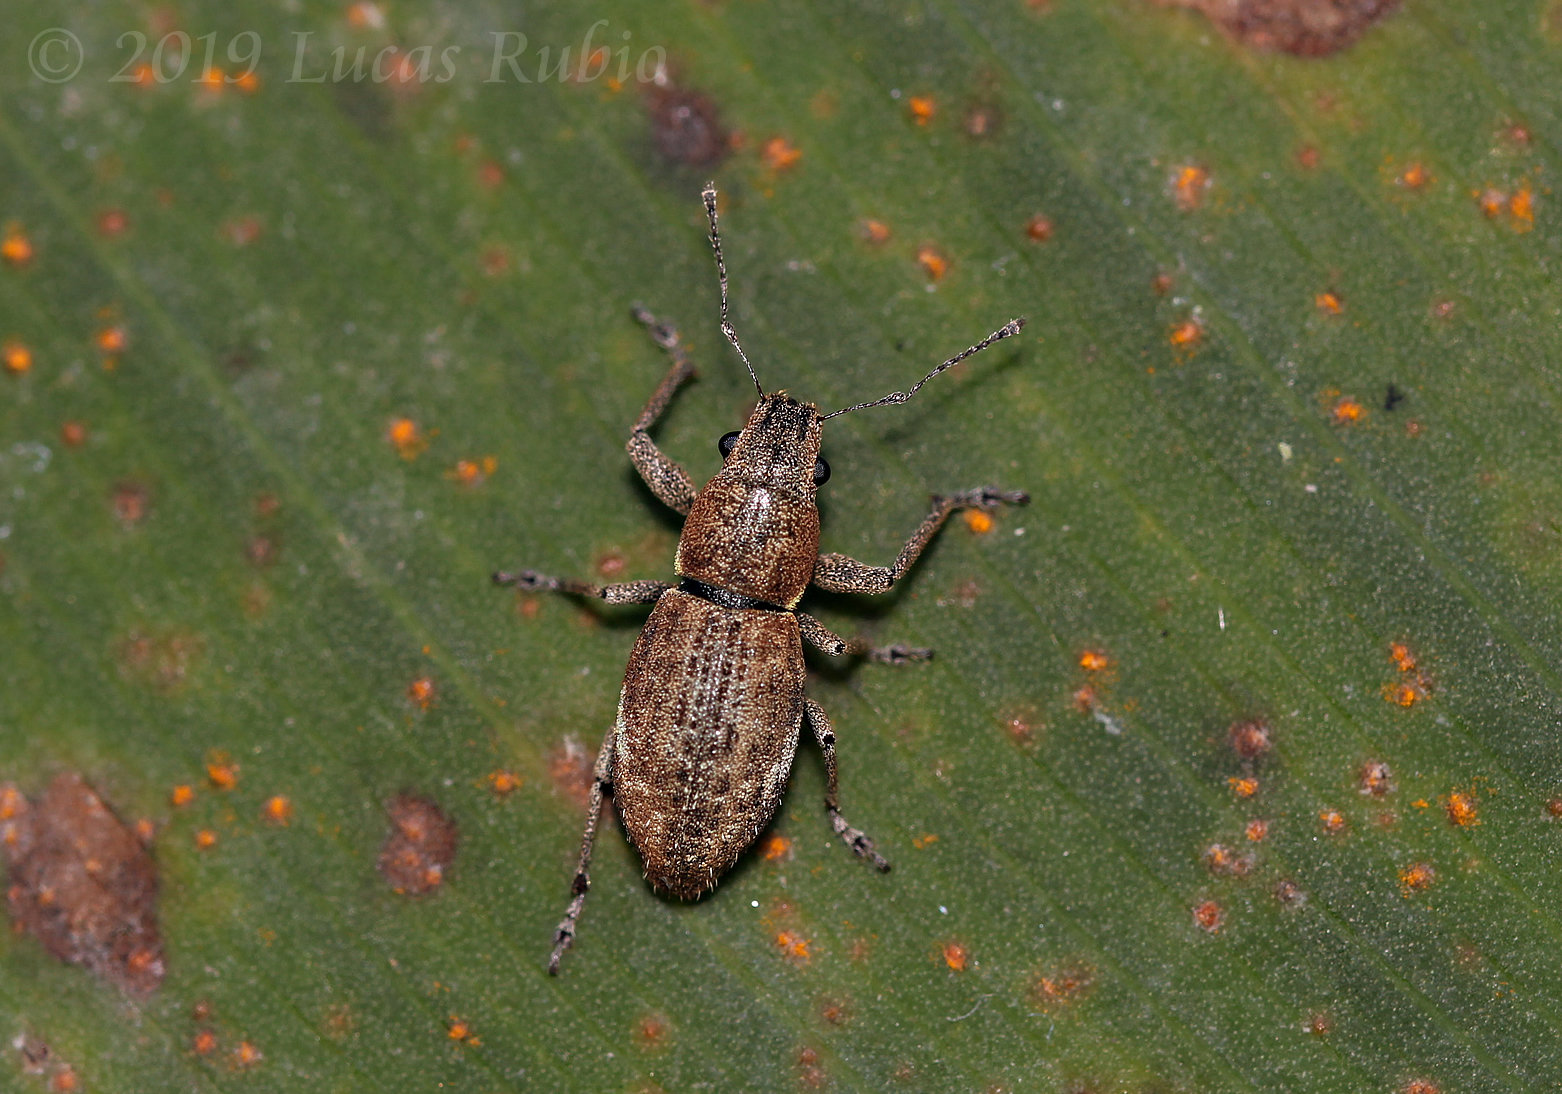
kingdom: Animalia
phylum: Arthropoda
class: Insecta
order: Coleoptera
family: Curculionidae
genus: Naupactus
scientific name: Naupactus cervinus
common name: Fuller rose beetle
